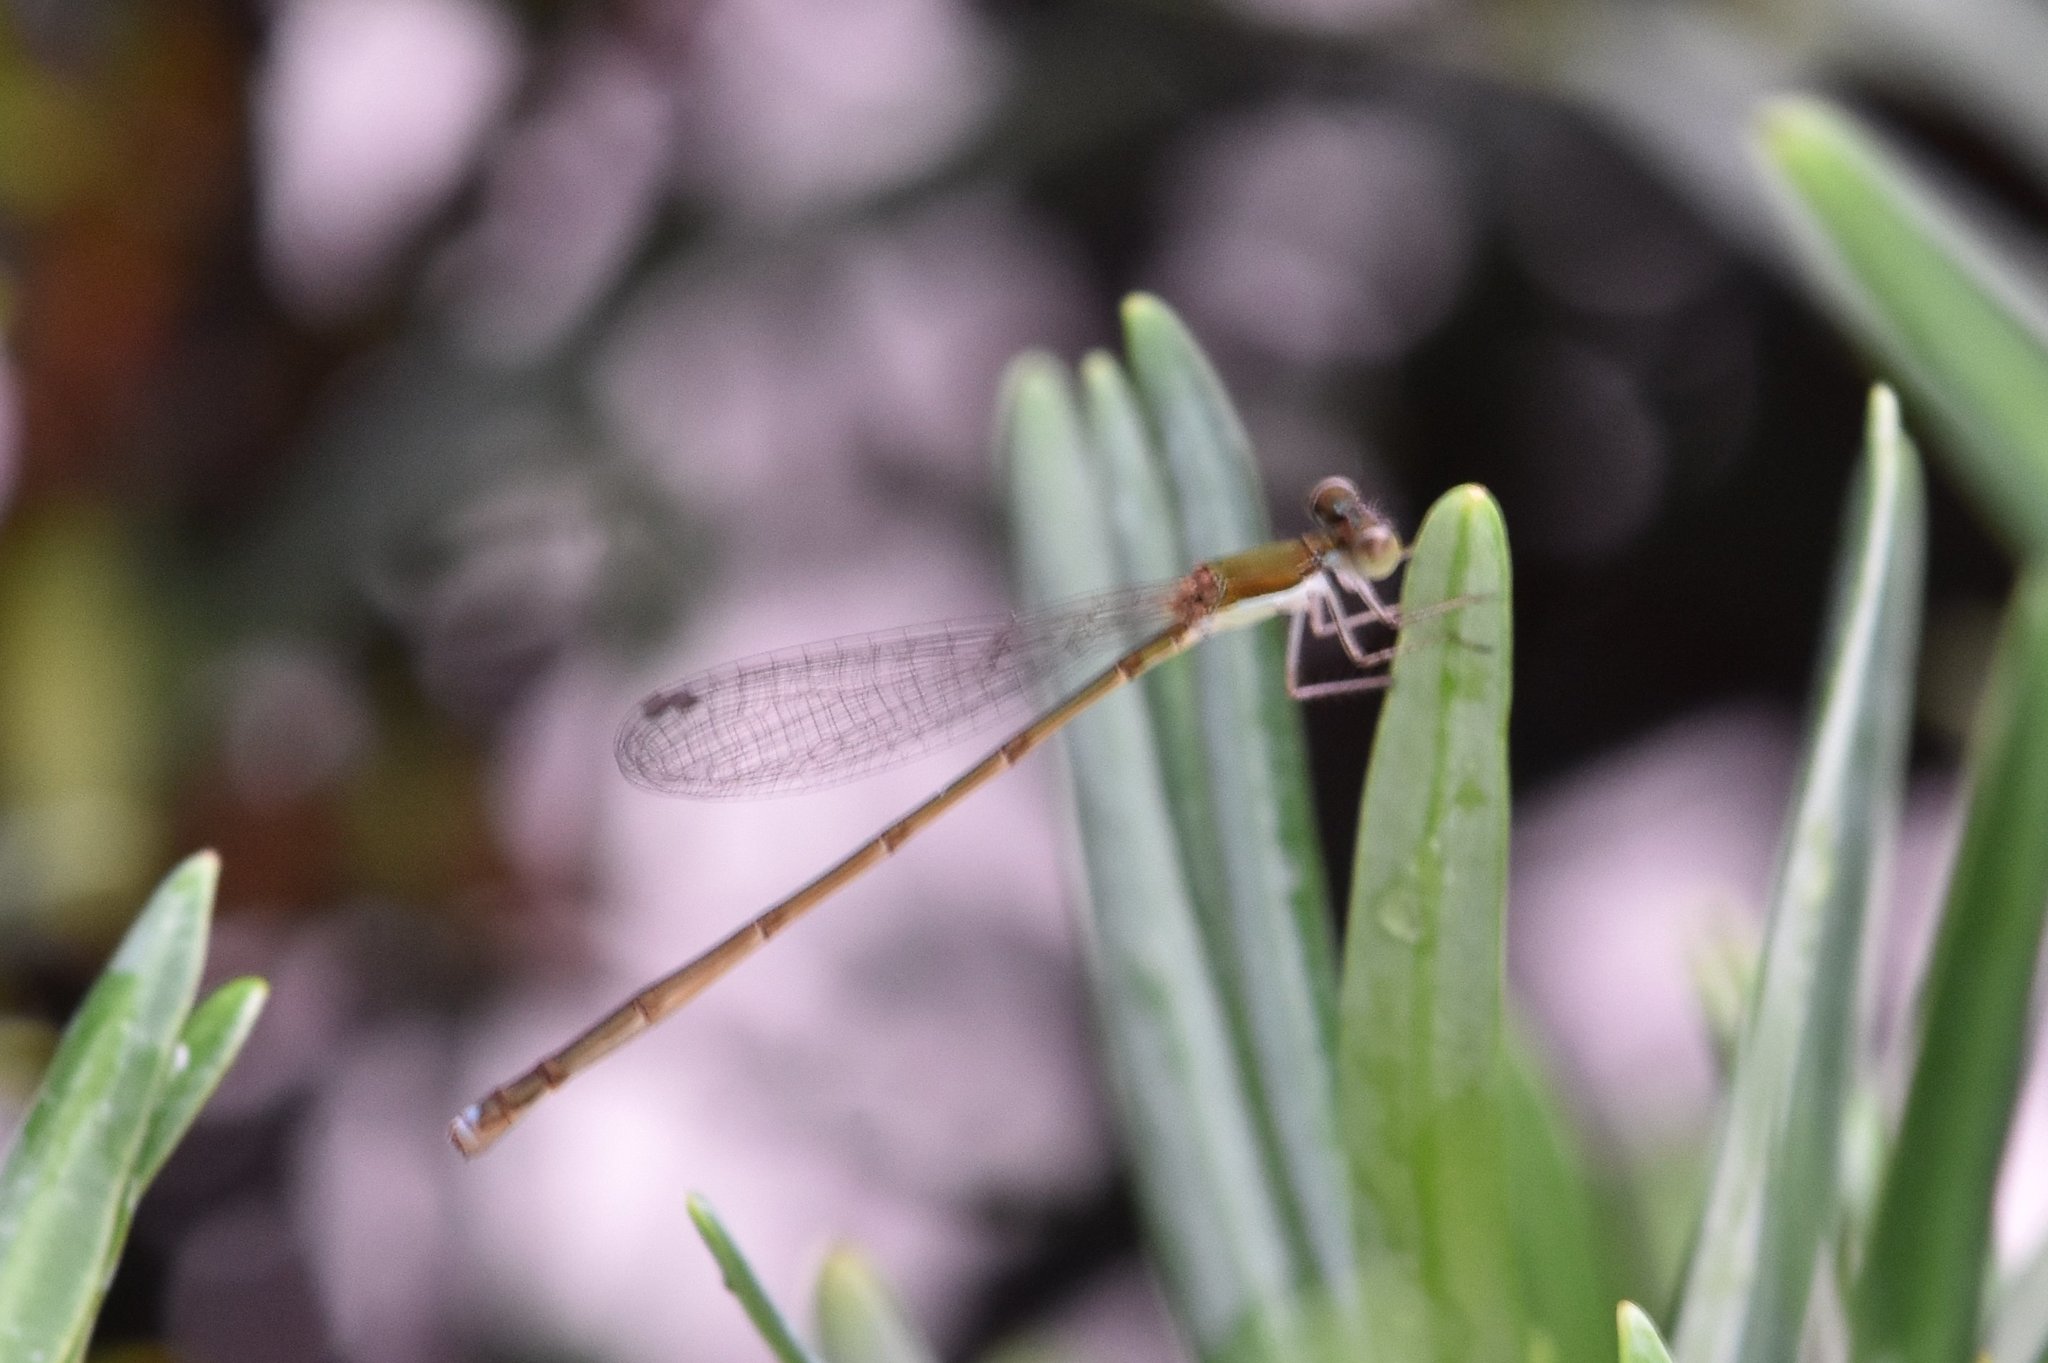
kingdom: Animalia
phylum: Arthropoda
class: Insecta
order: Odonata
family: Coenagrionidae
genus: Nehalennia
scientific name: Nehalennia integricollis
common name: Southern sprite
